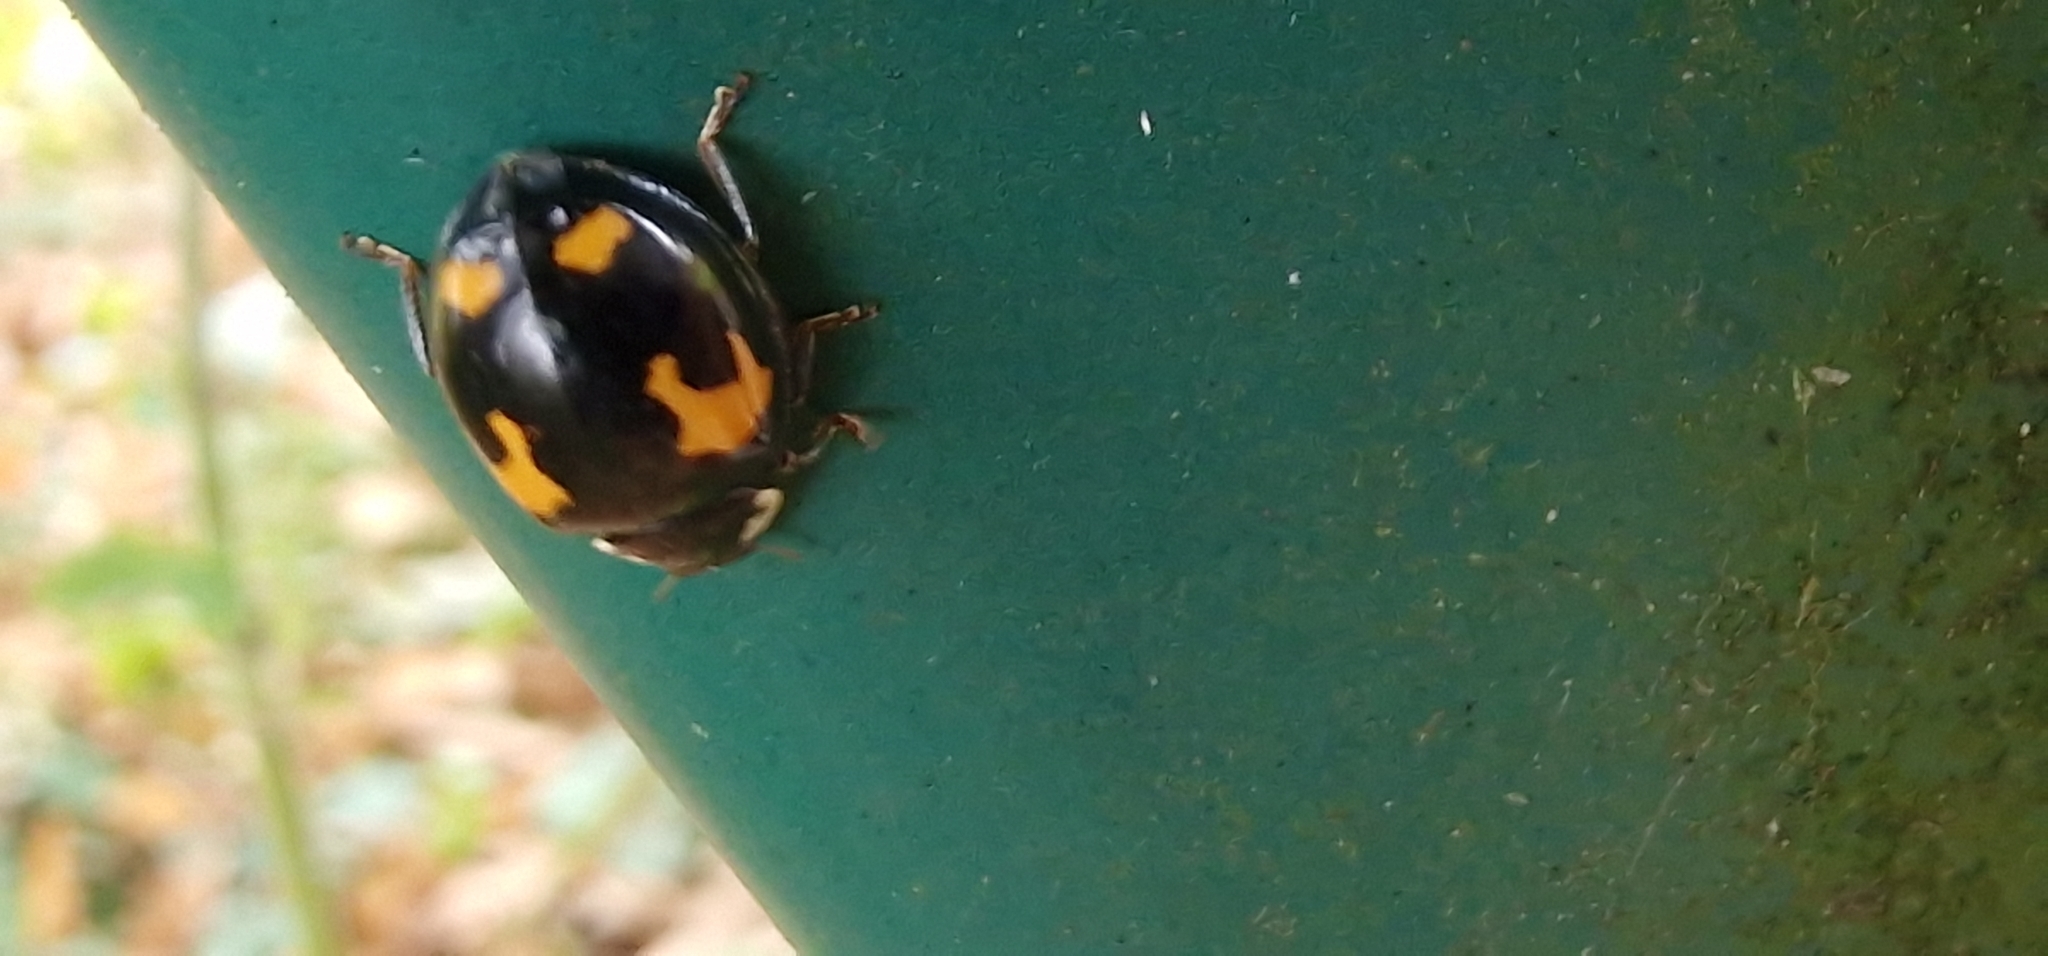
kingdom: Animalia
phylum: Arthropoda
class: Insecta
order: Coleoptera
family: Coccinellidae
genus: Harmonia
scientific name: Harmonia axyridis
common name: Harlequin ladybird
